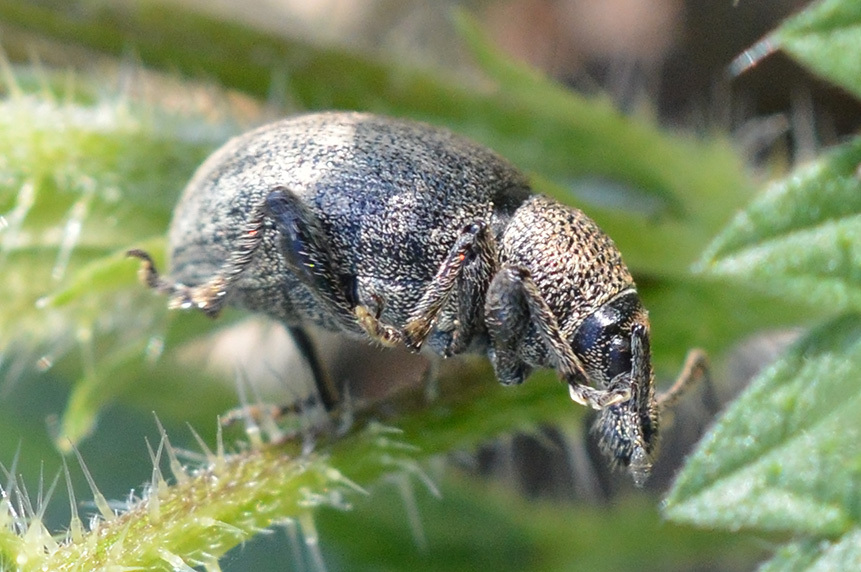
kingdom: Animalia
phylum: Arthropoda
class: Insecta
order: Coleoptera
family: Curculionidae
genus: Nedyus
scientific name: Nedyus quadrimaculatus
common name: Small nettle weevil
